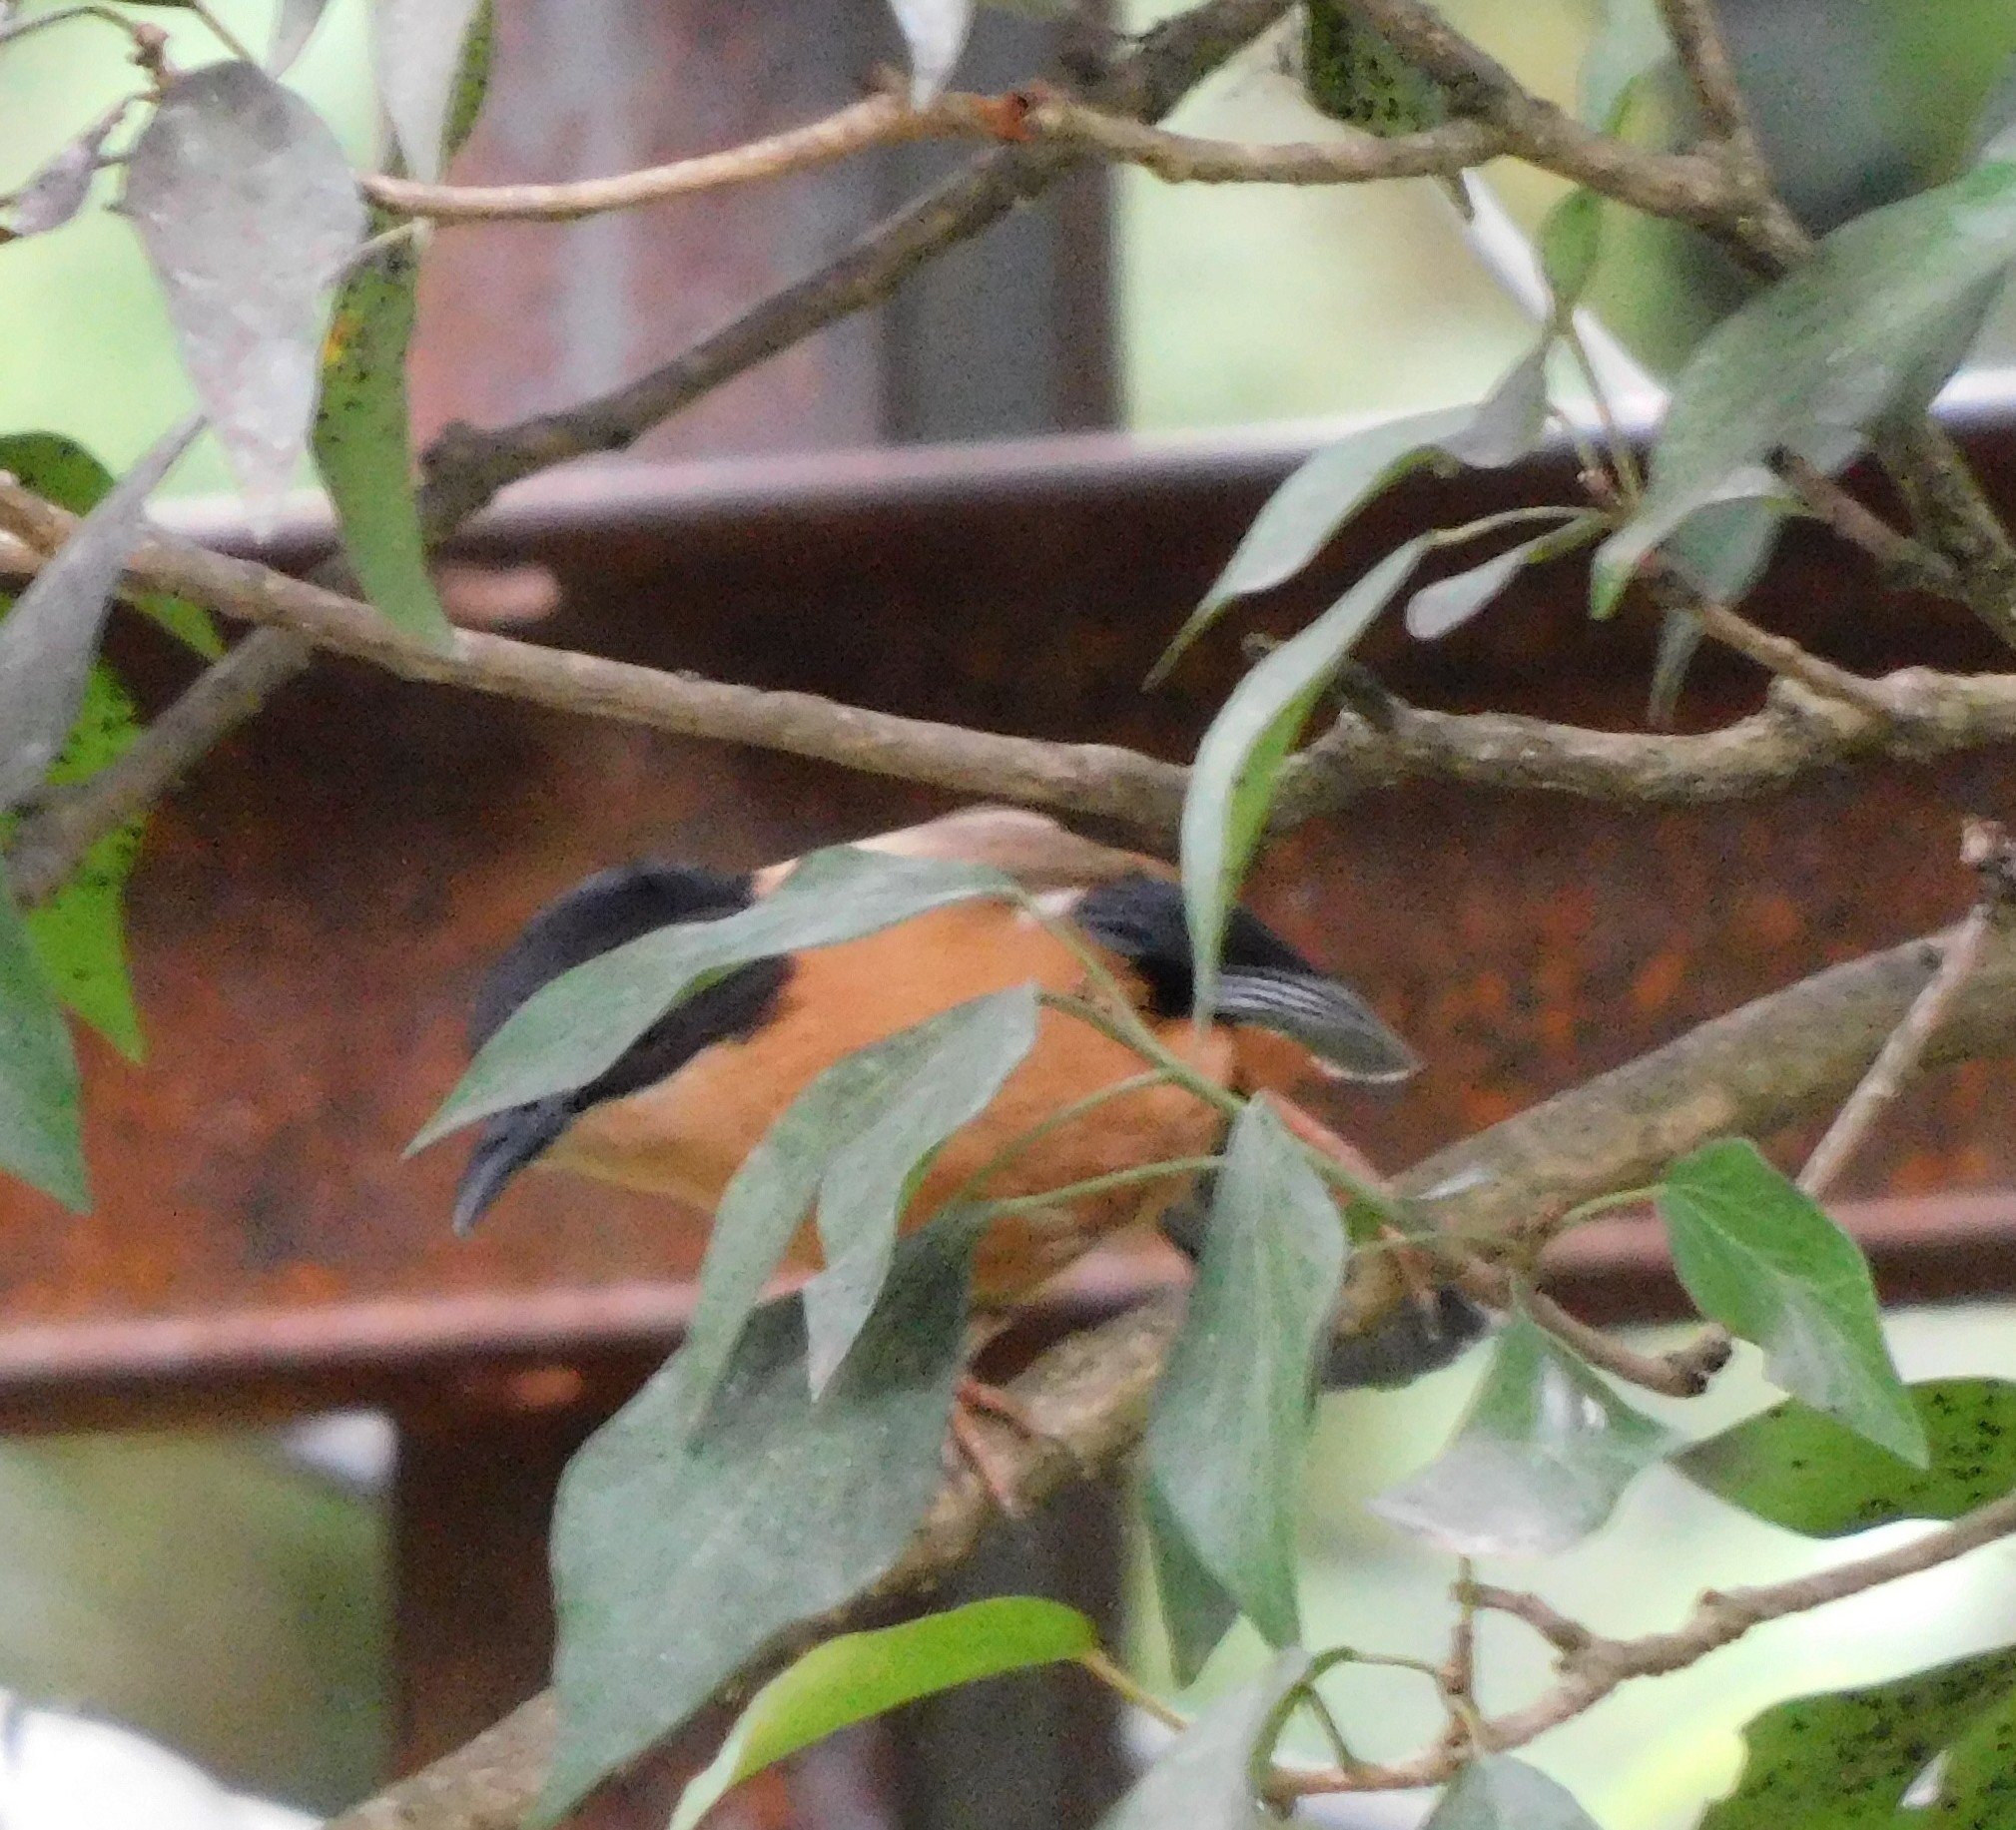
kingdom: Animalia
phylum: Chordata
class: Aves
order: Passeriformes
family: Leiothrichidae
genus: Heterophasia
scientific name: Heterophasia capistrata
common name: Rufous sibia
